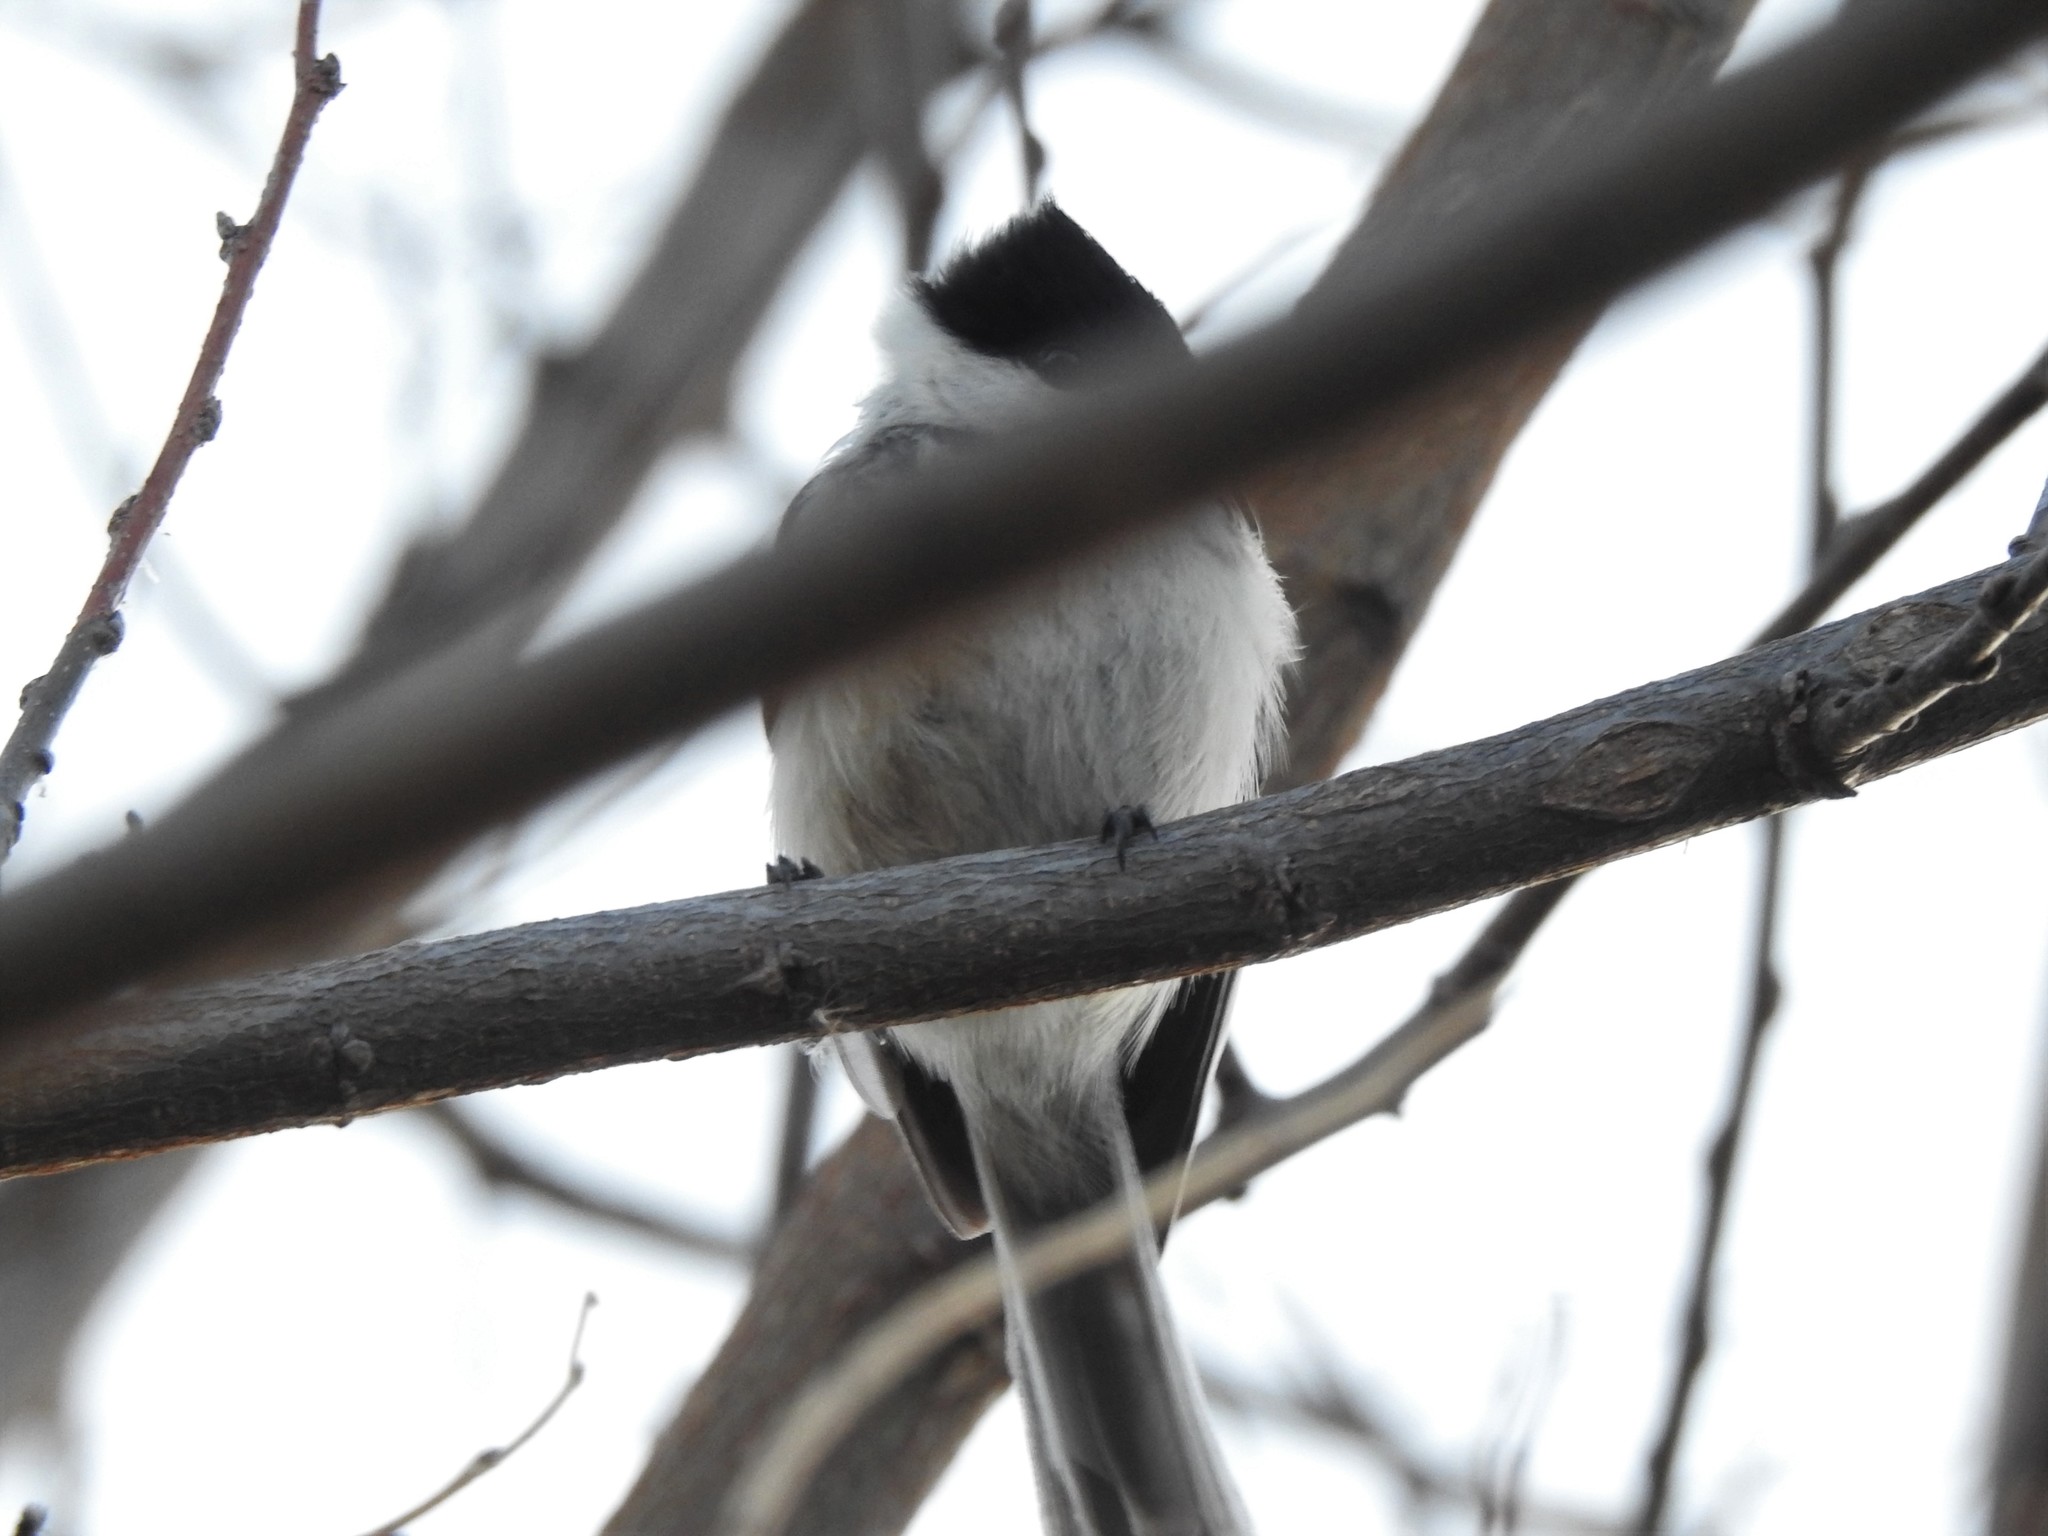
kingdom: Animalia
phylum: Chordata
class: Aves
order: Passeriformes
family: Paridae
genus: Poecile
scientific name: Poecile atricapillus
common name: Black-capped chickadee
